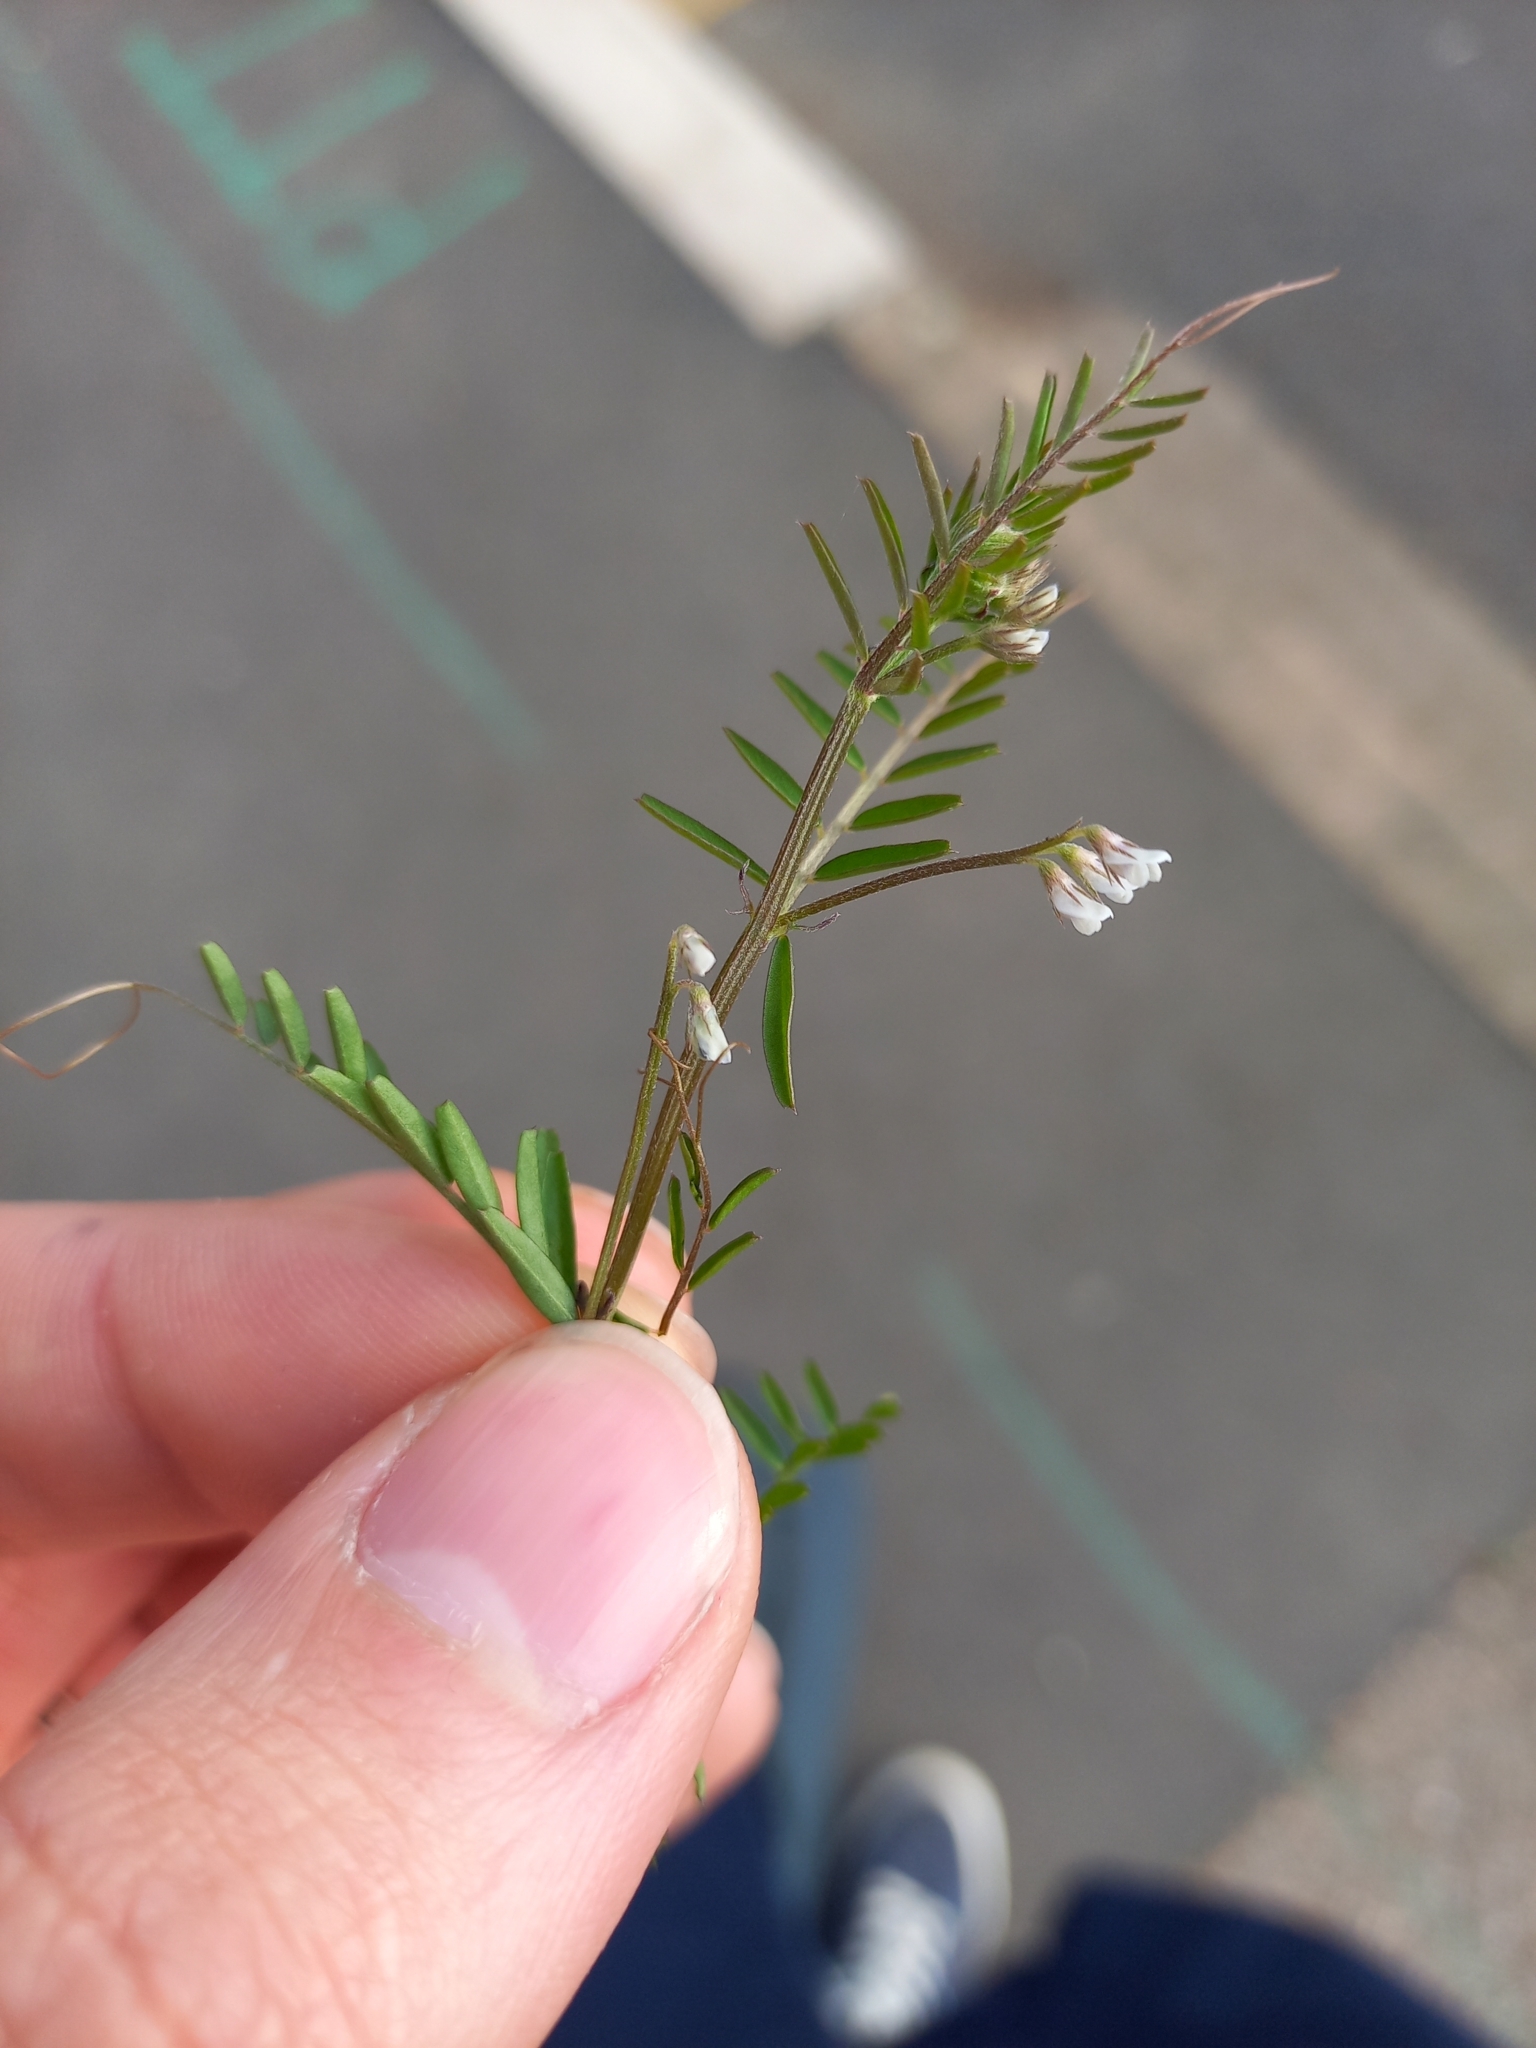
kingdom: Plantae
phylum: Tracheophyta
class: Magnoliopsida
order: Fabales
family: Fabaceae
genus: Vicia
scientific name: Vicia hirsuta
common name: Tiny vetch
